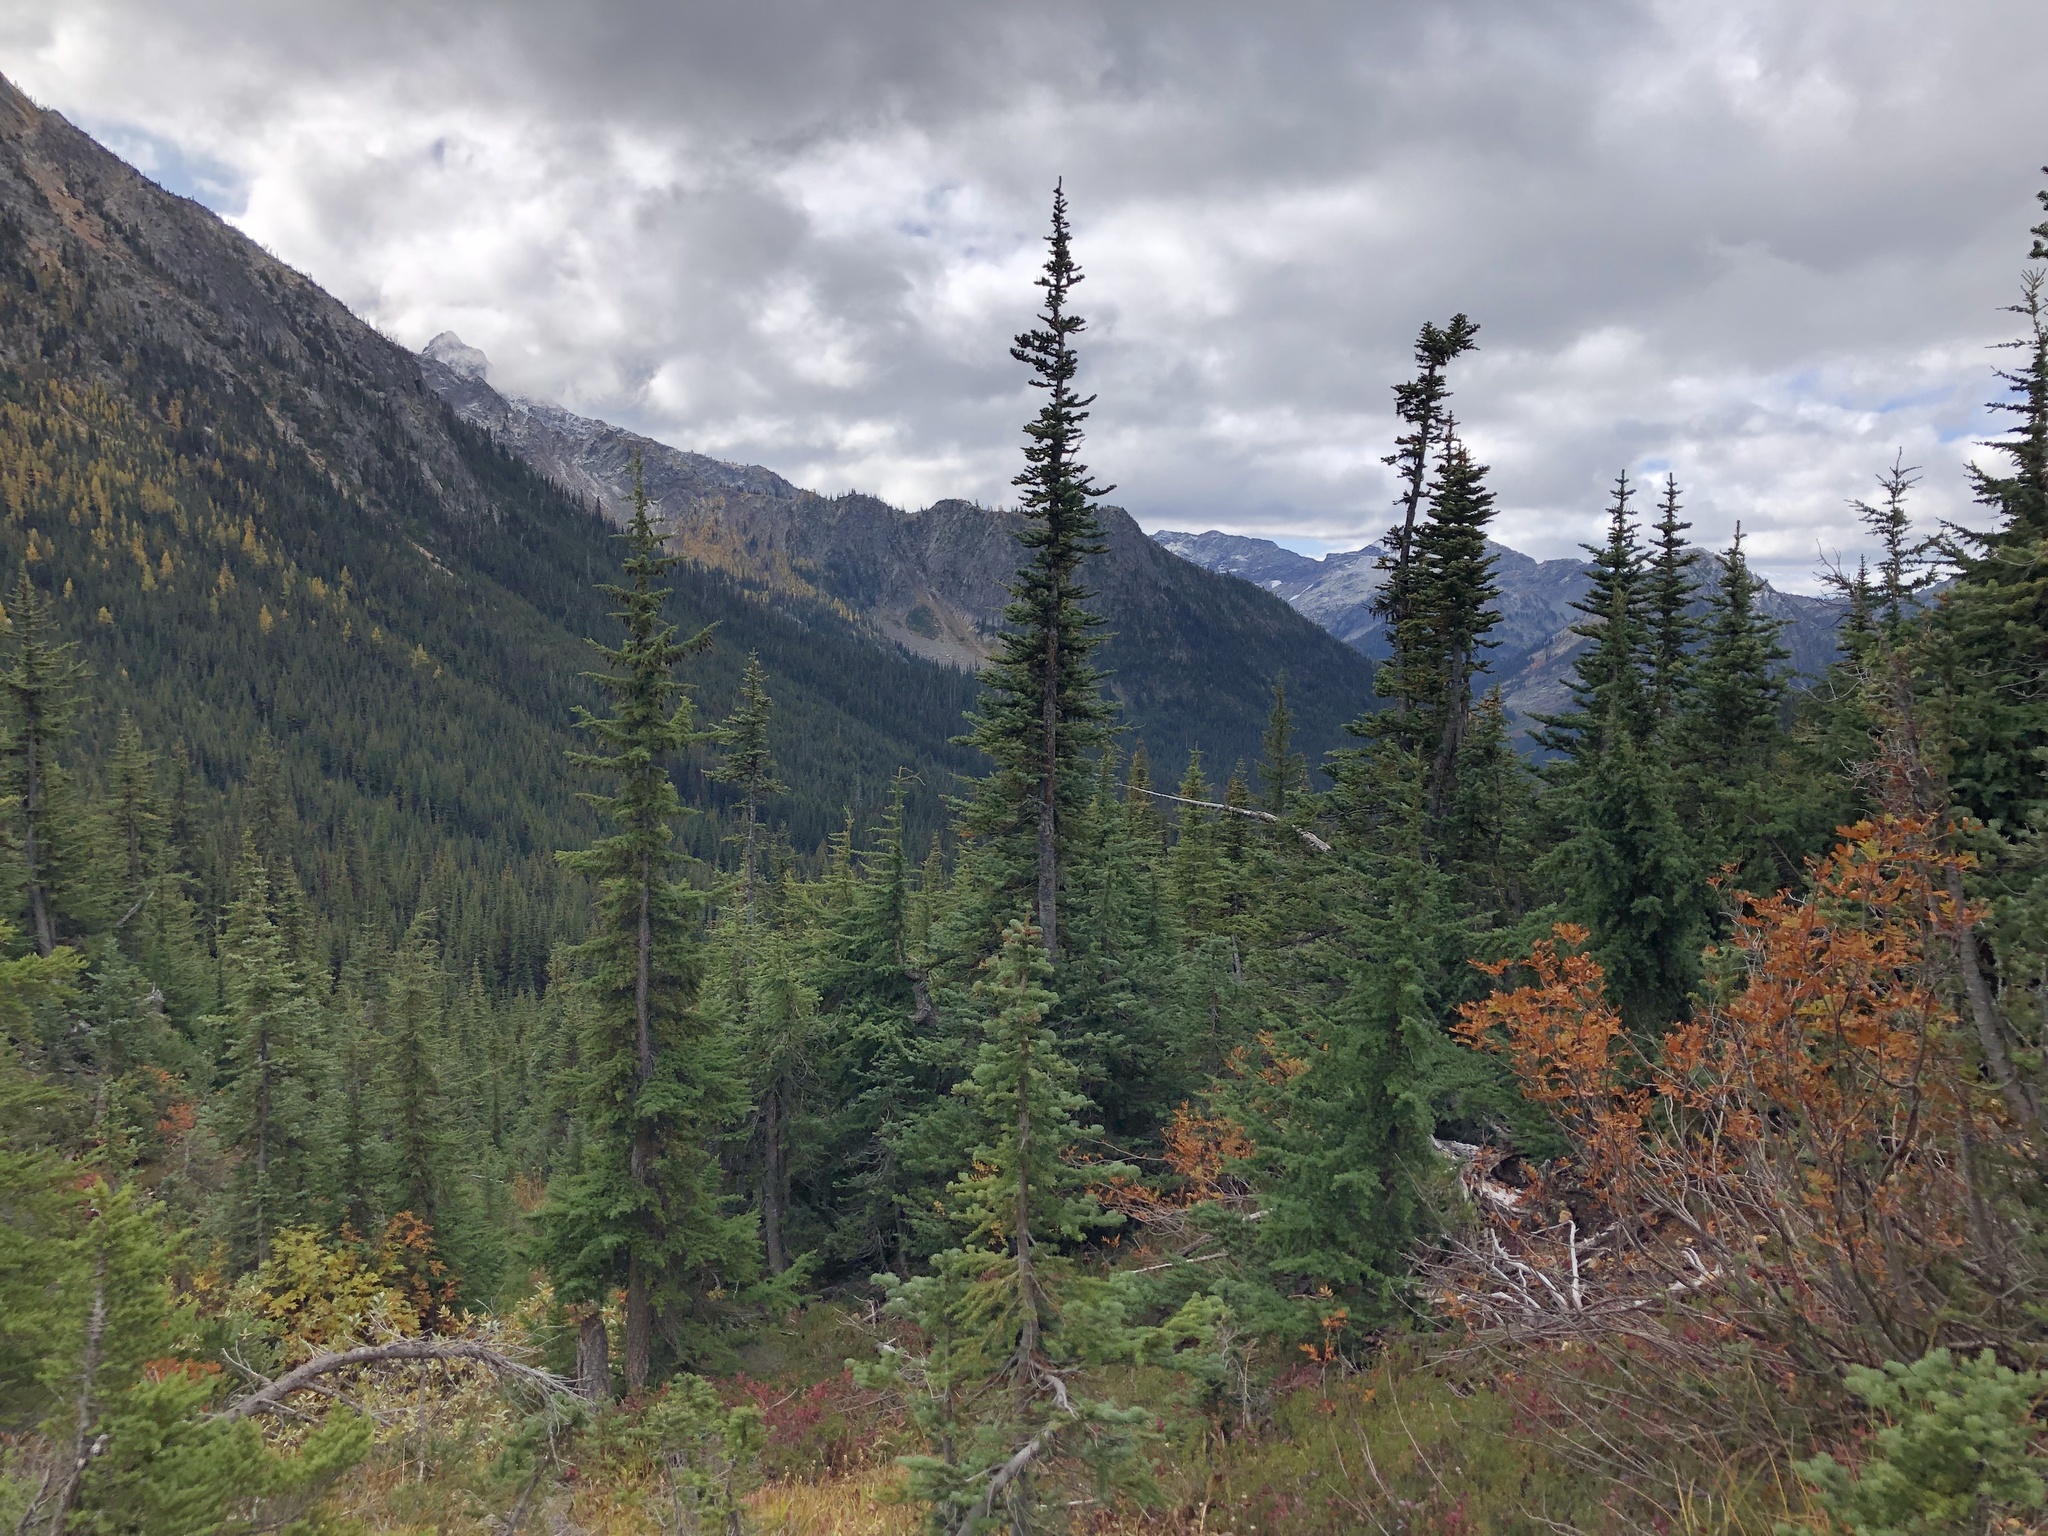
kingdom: Plantae
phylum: Tracheophyta
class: Pinopsida
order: Pinales
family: Pinaceae
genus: Abies
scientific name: Abies lasiocarpa
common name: Subalpine fir
